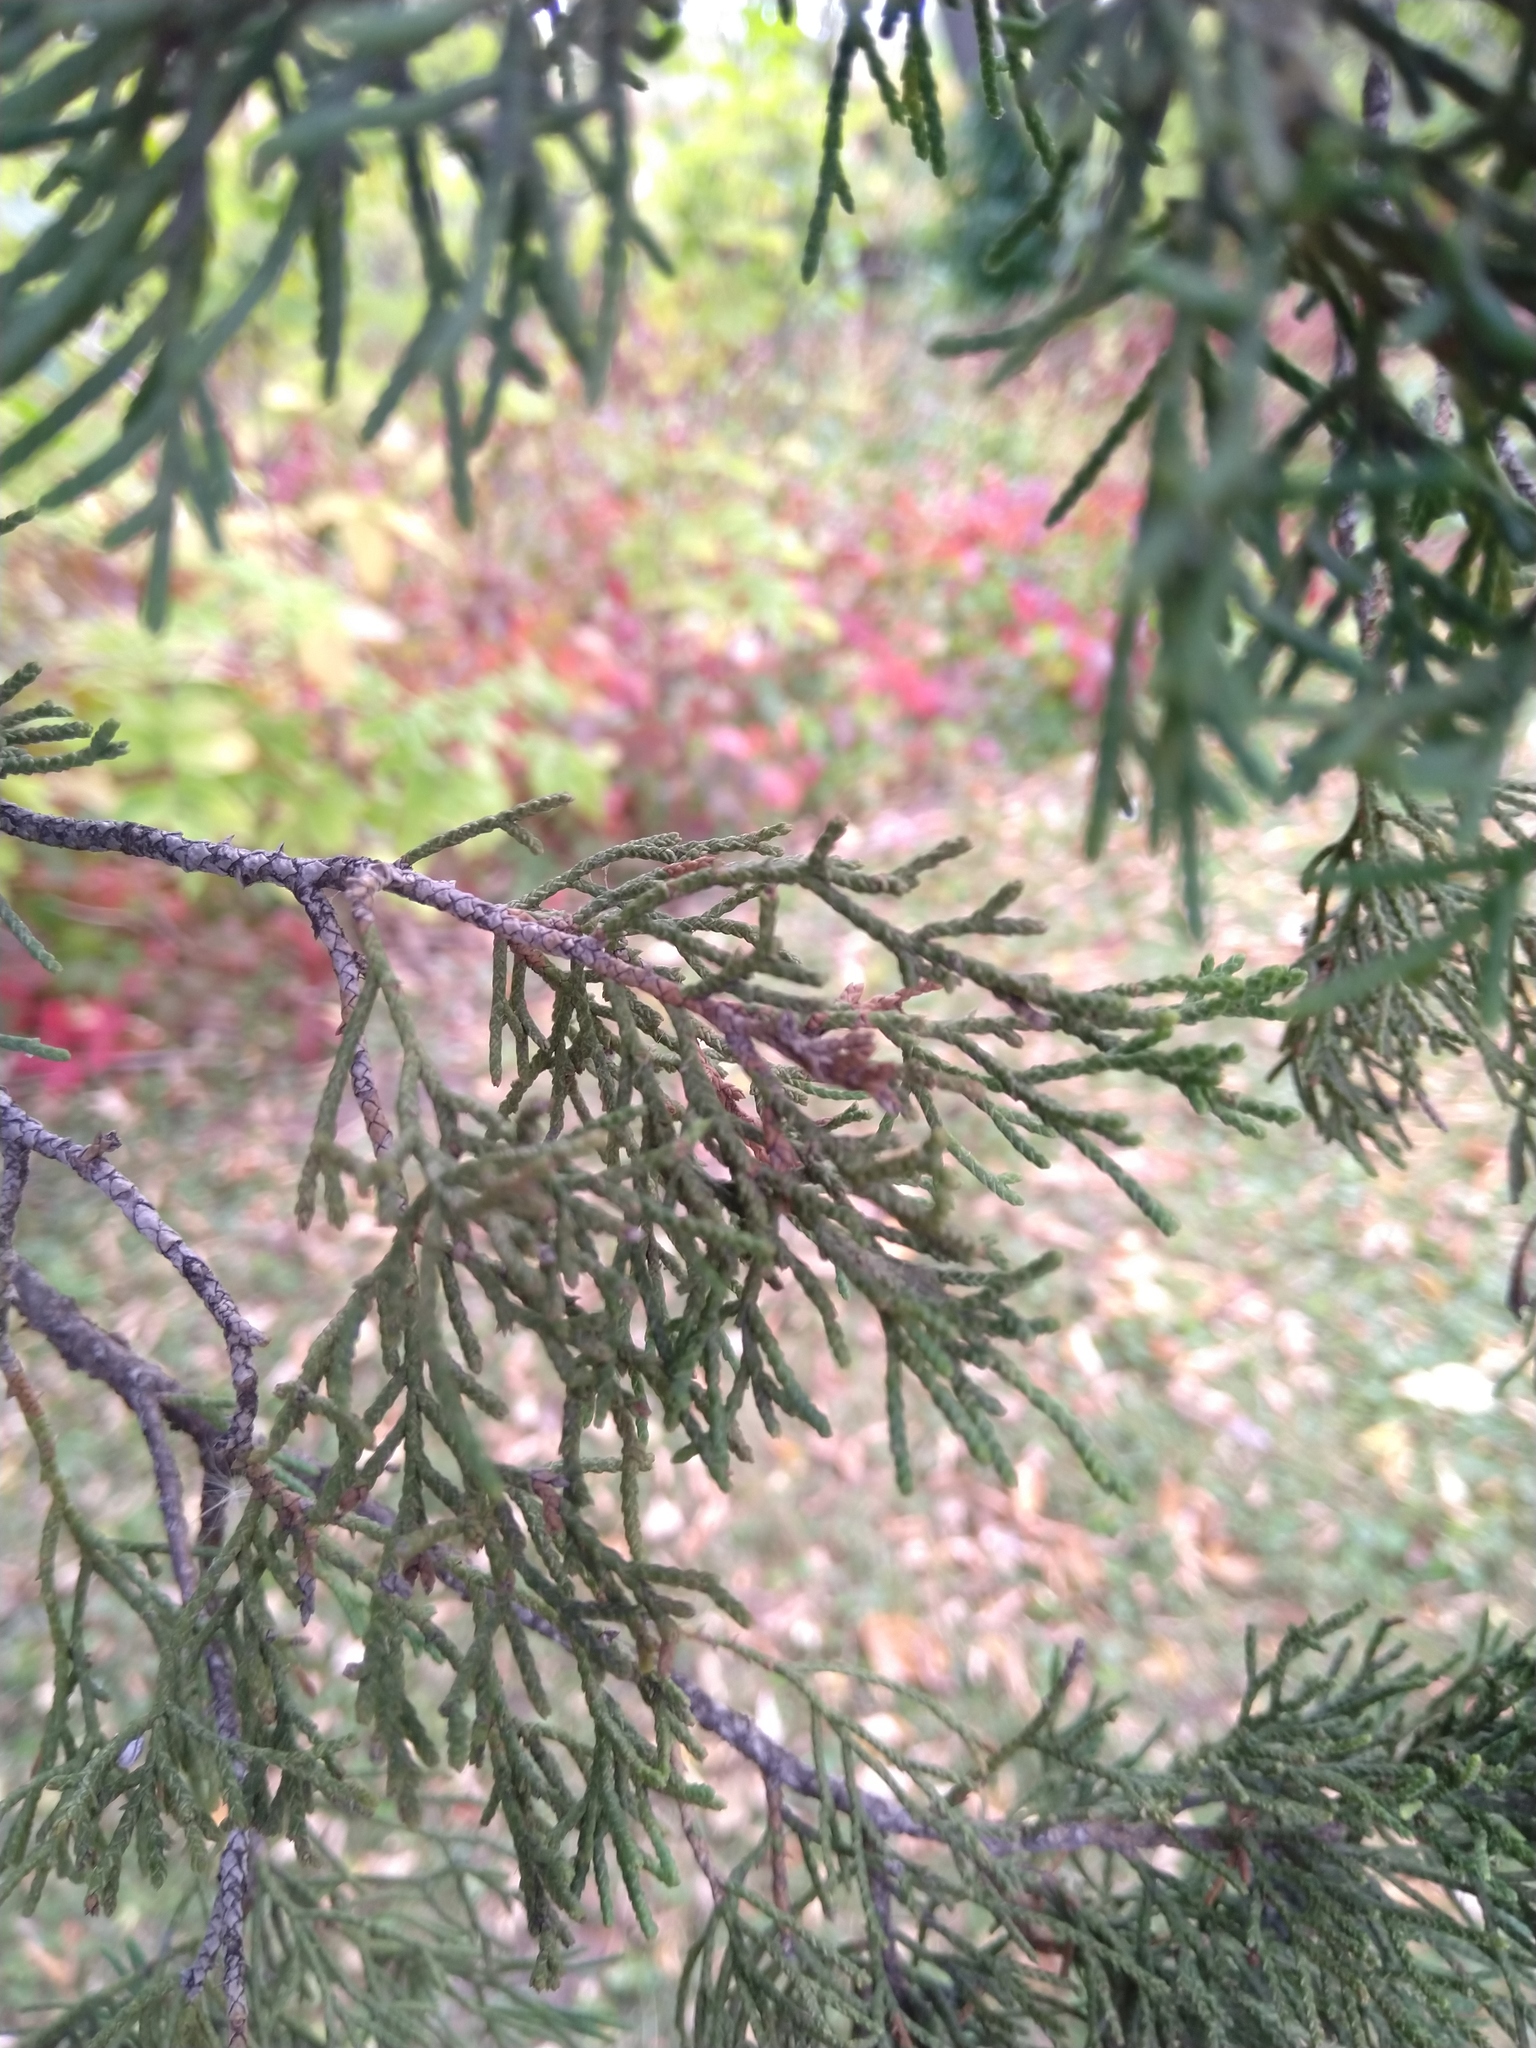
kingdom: Plantae
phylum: Tracheophyta
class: Pinopsida
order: Pinales
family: Cupressaceae
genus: Juniperus
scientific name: Juniperus virginiana
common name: Red juniper
